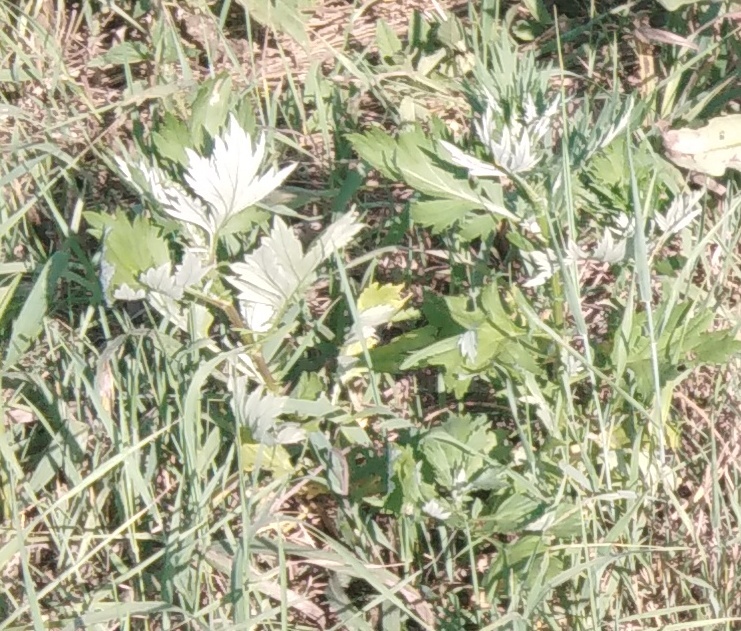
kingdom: Plantae
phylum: Tracheophyta
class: Magnoliopsida
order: Asterales
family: Asteraceae
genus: Artemisia
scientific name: Artemisia vulgaris
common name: Mugwort
